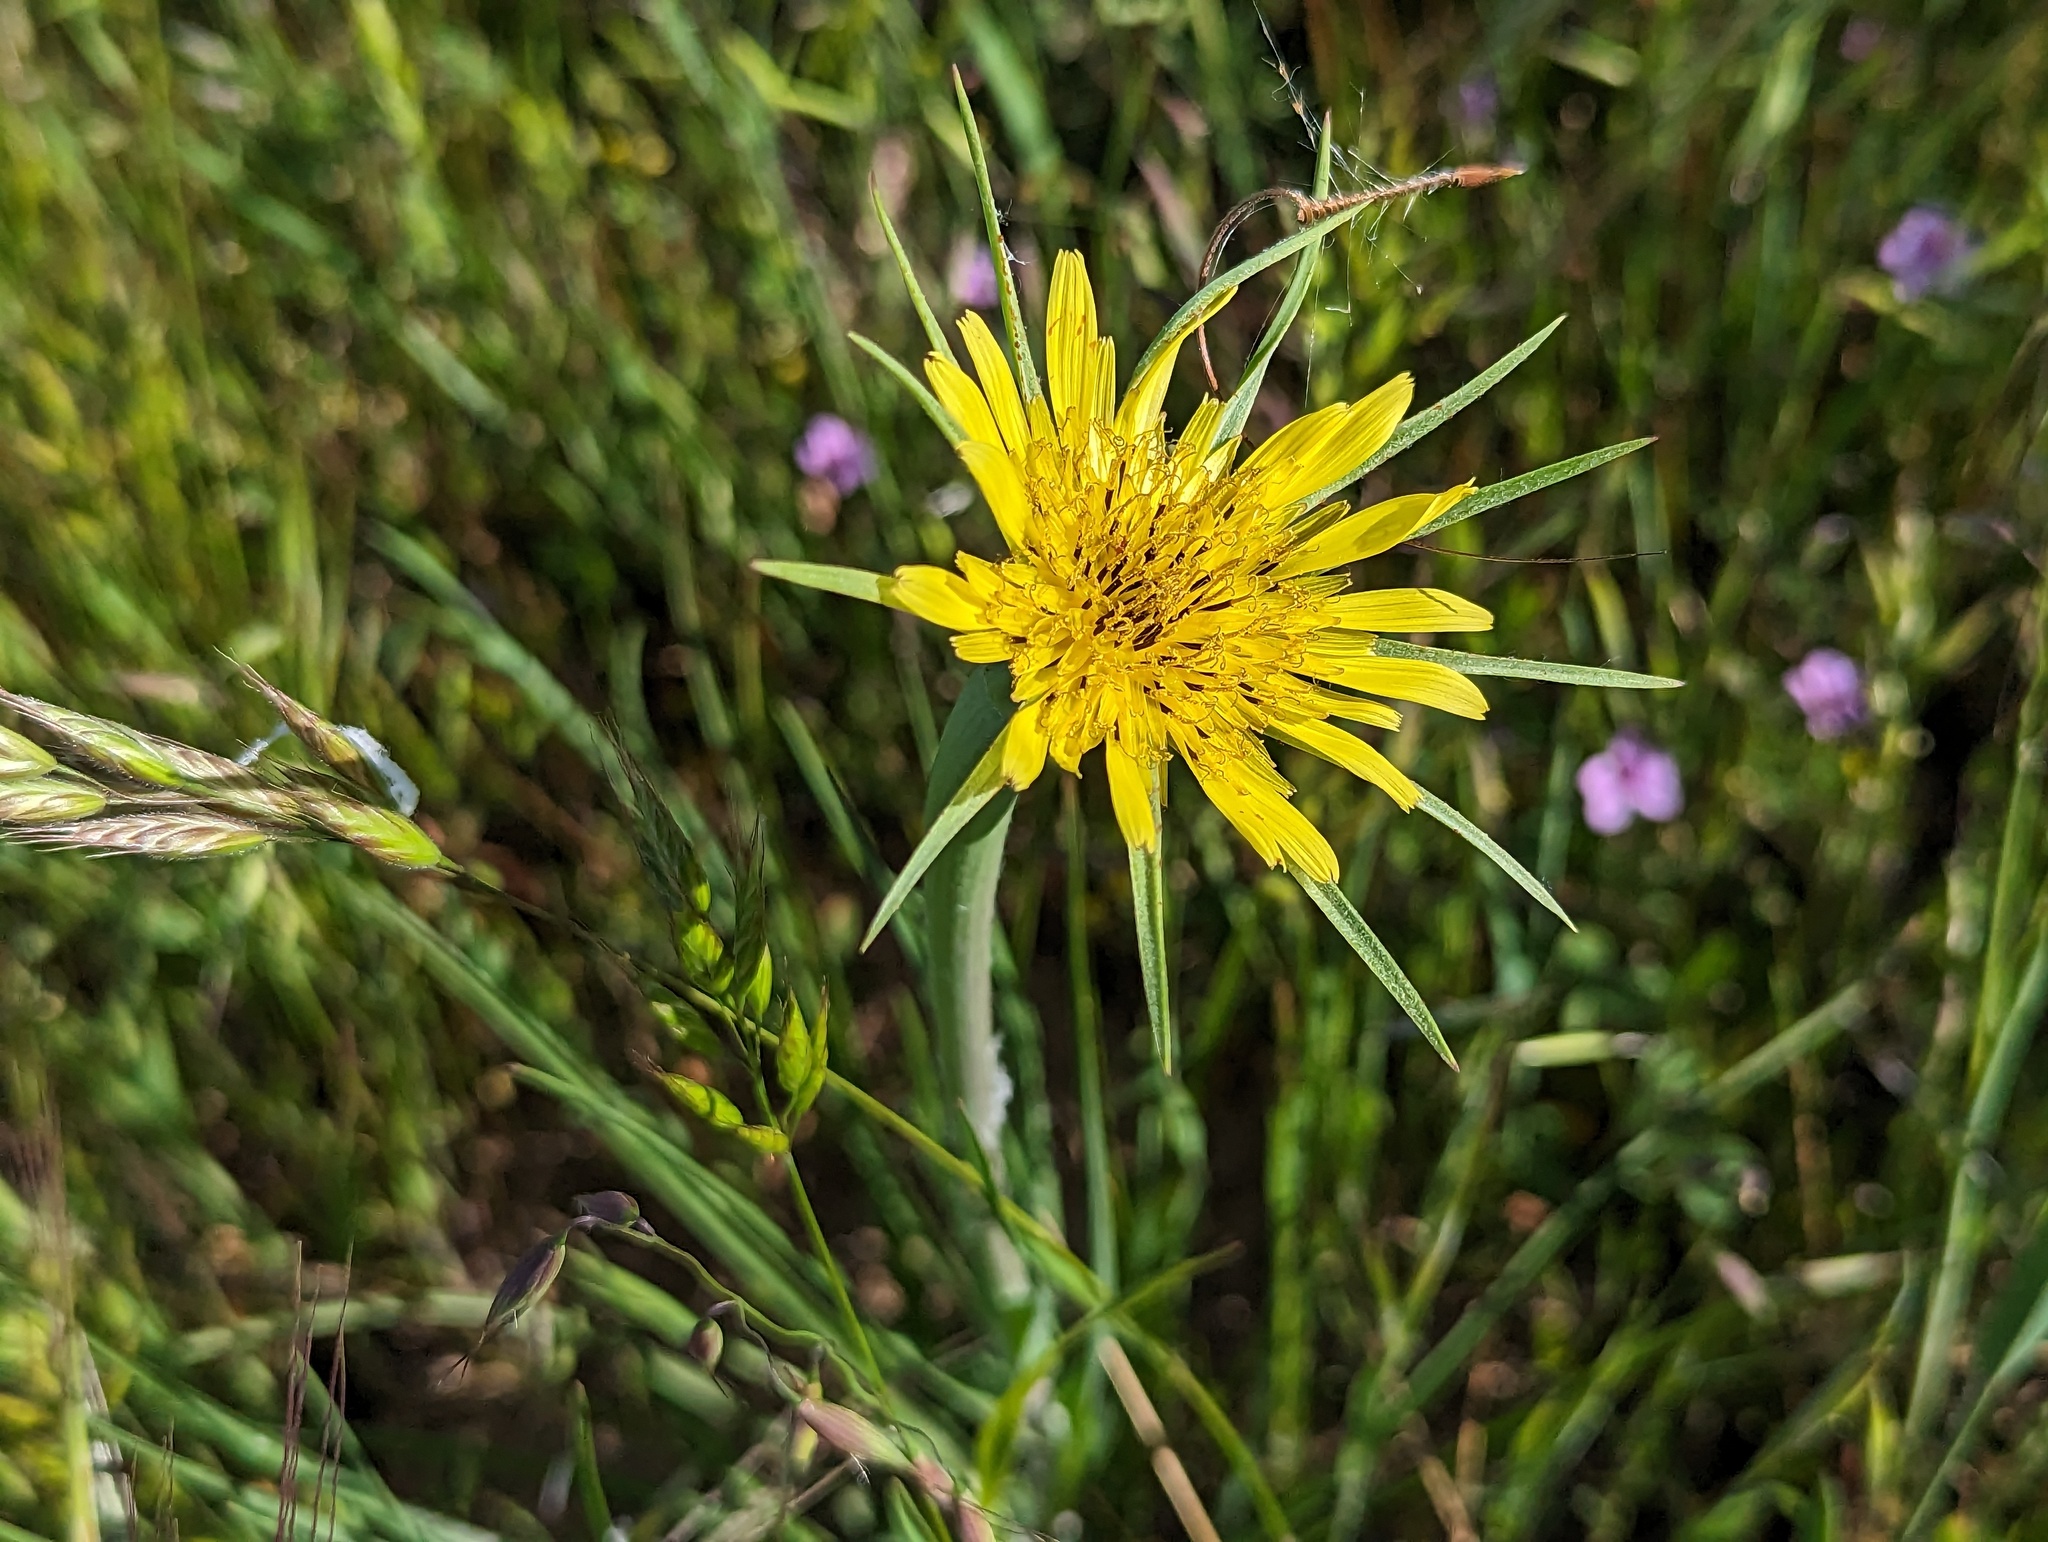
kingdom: Plantae
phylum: Tracheophyta
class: Magnoliopsida
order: Asterales
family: Asteraceae
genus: Tragopogon
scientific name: Tragopogon dubius
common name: Yellow salsify
